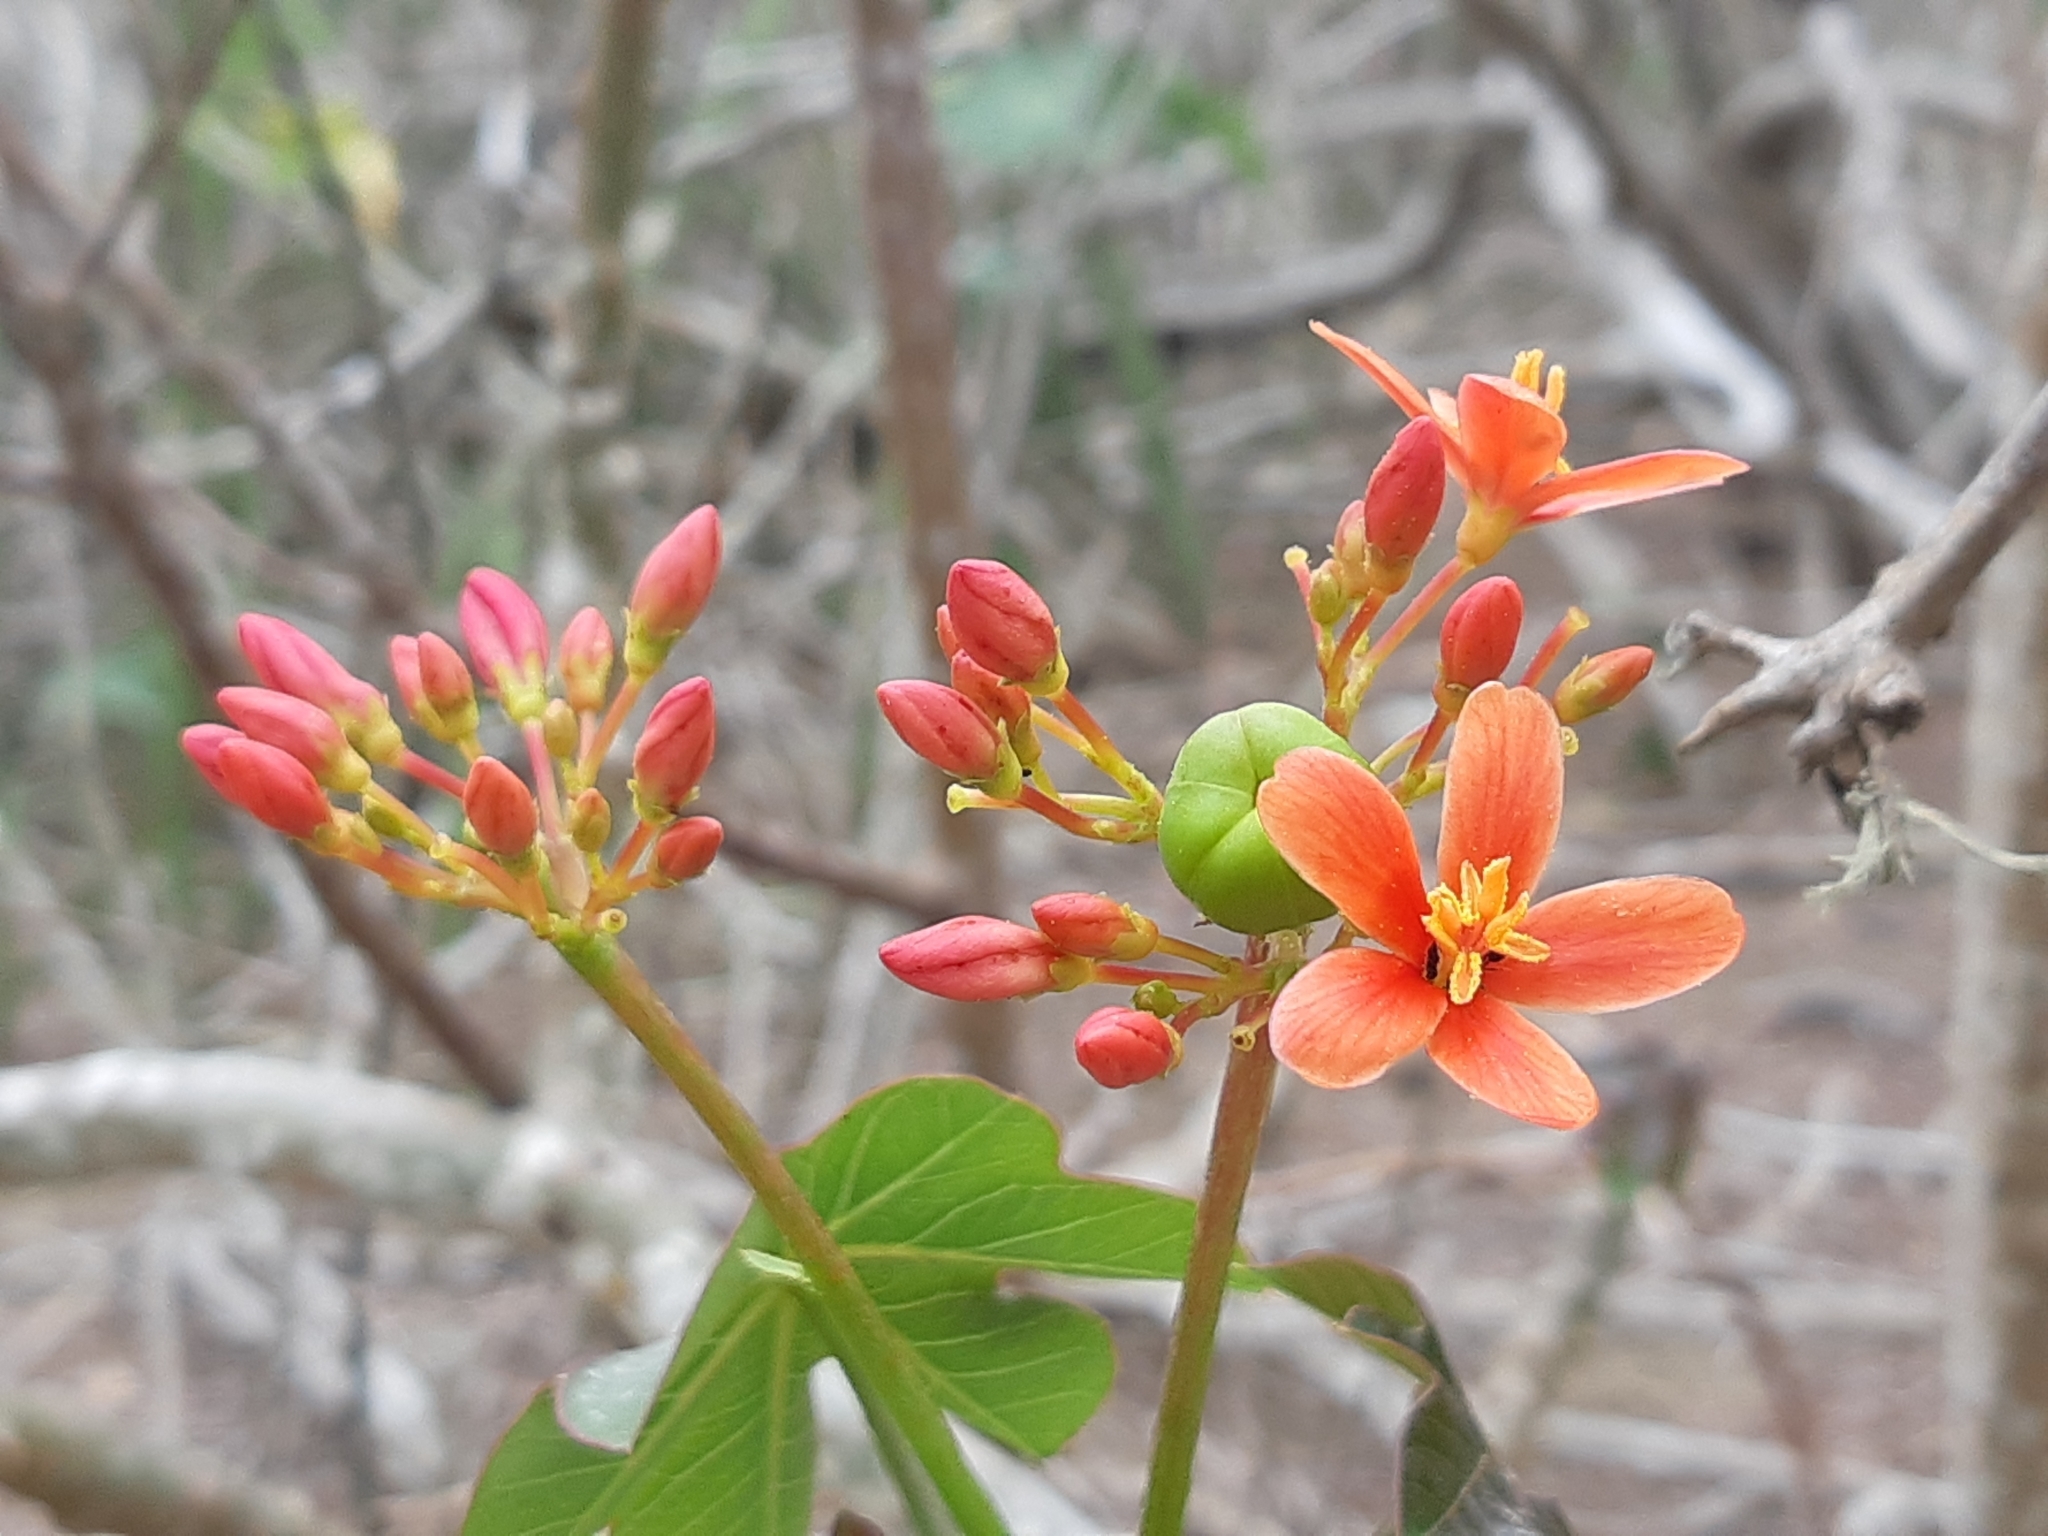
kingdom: Plantae
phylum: Tracheophyta
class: Magnoliopsida
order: Malpighiales
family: Euphorbiaceae
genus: Jatropha
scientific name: Jatropha nudicaulis
